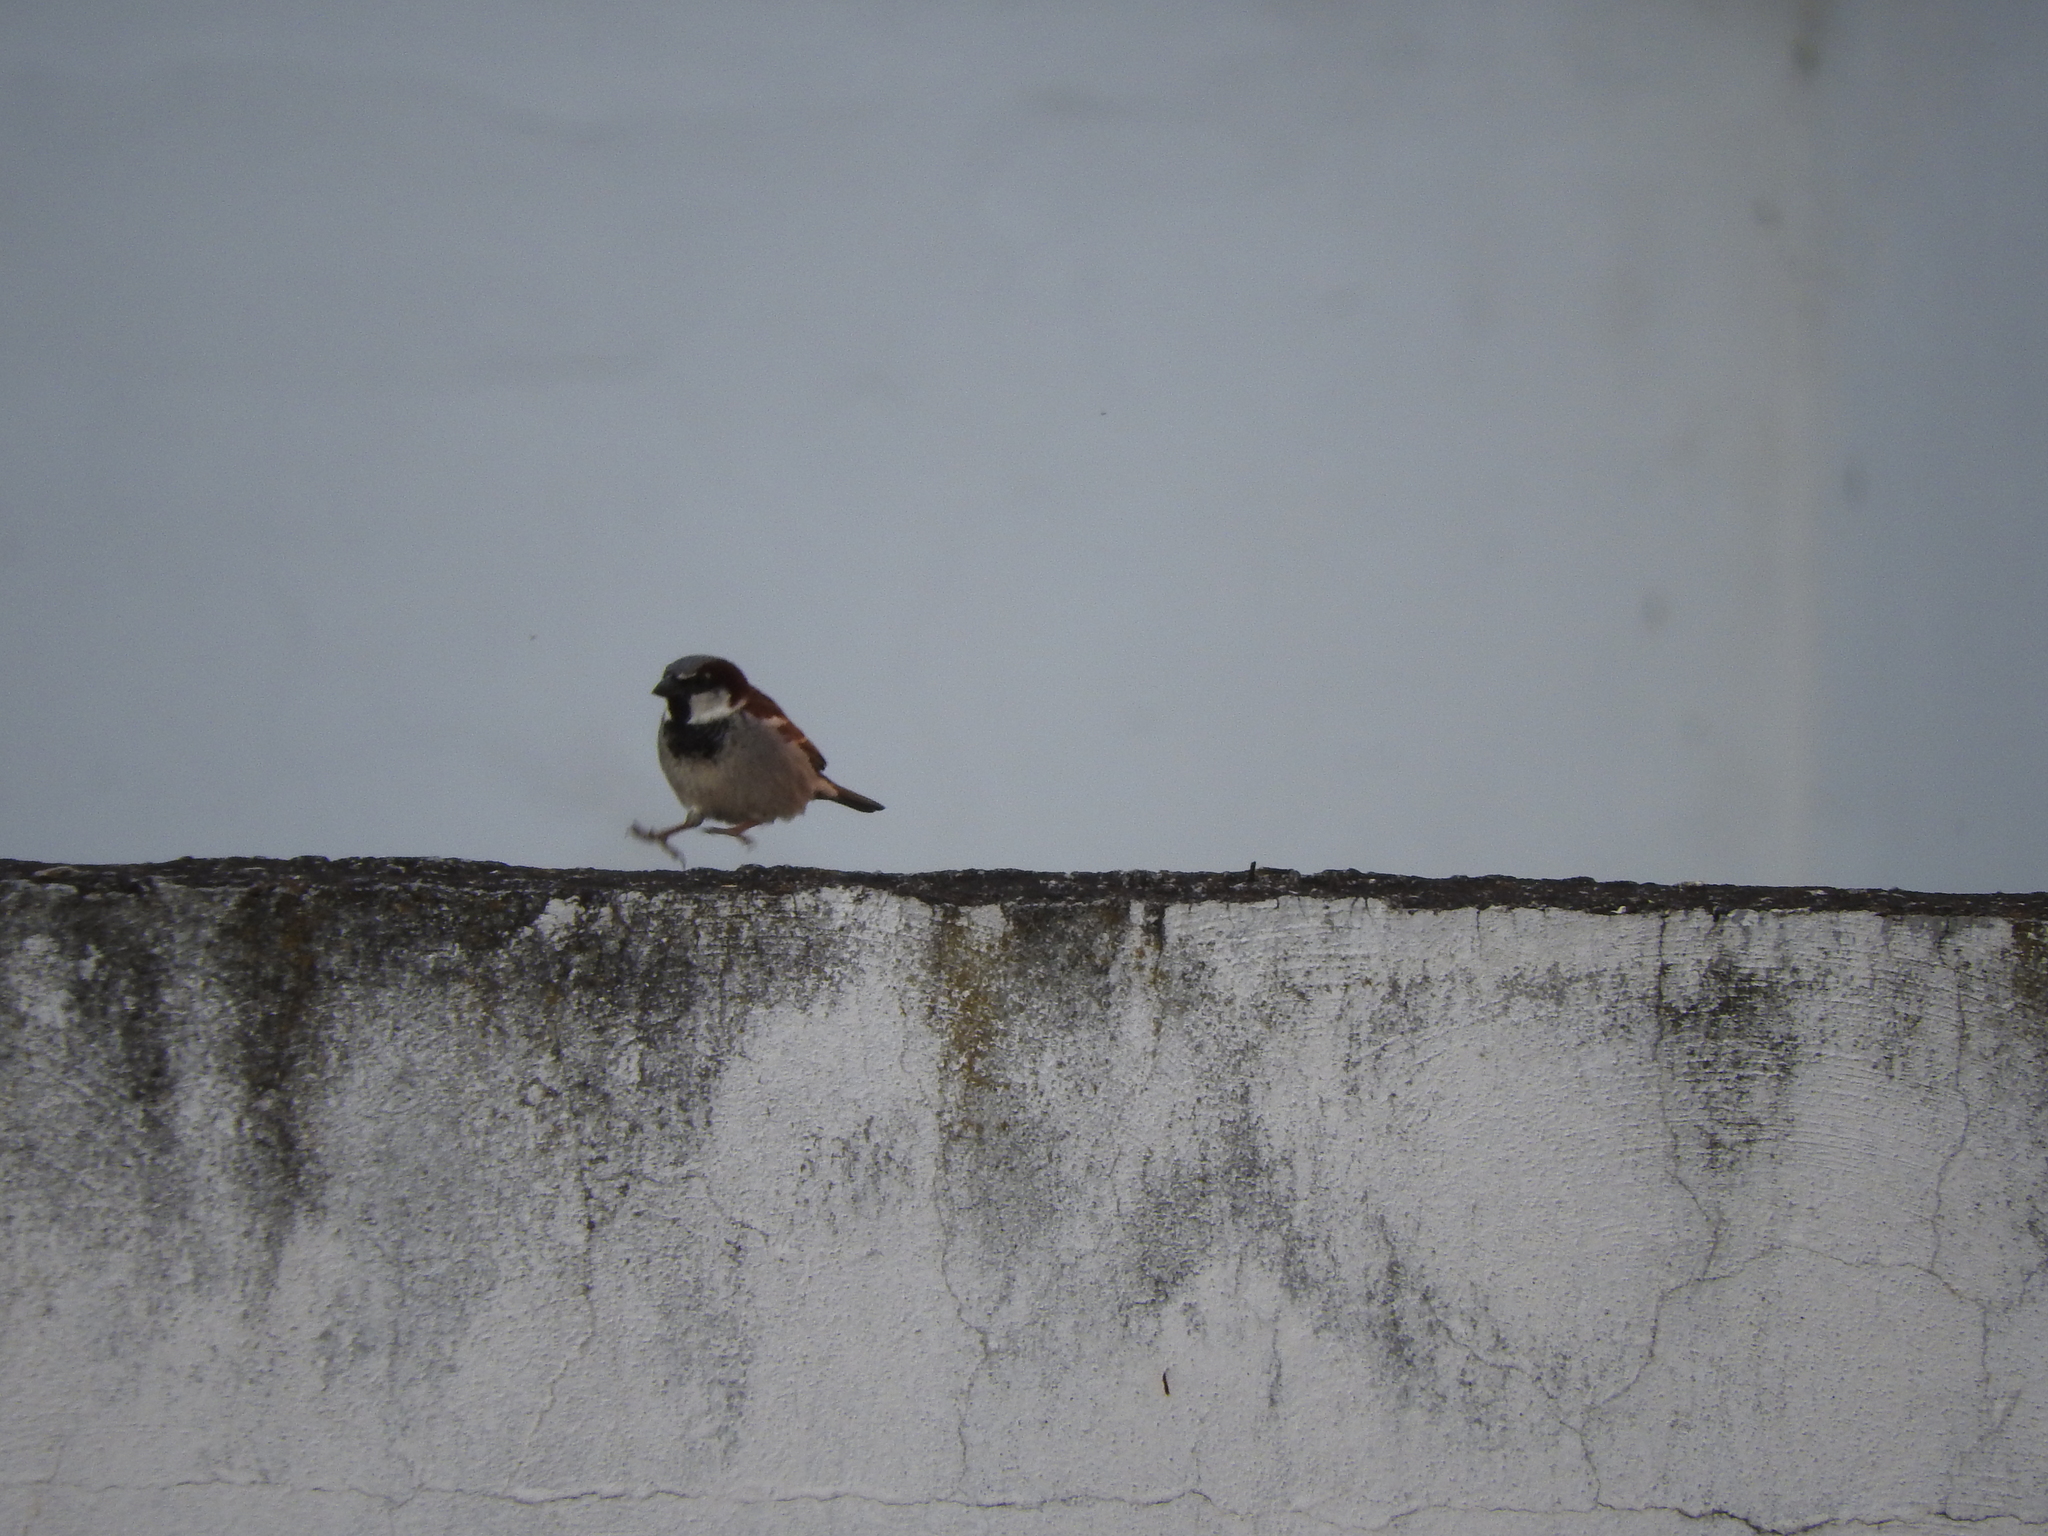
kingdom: Animalia
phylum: Chordata
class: Aves
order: Passeriformes
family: Passeridae
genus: Passer
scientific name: Passer domesticus
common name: House sparrow
